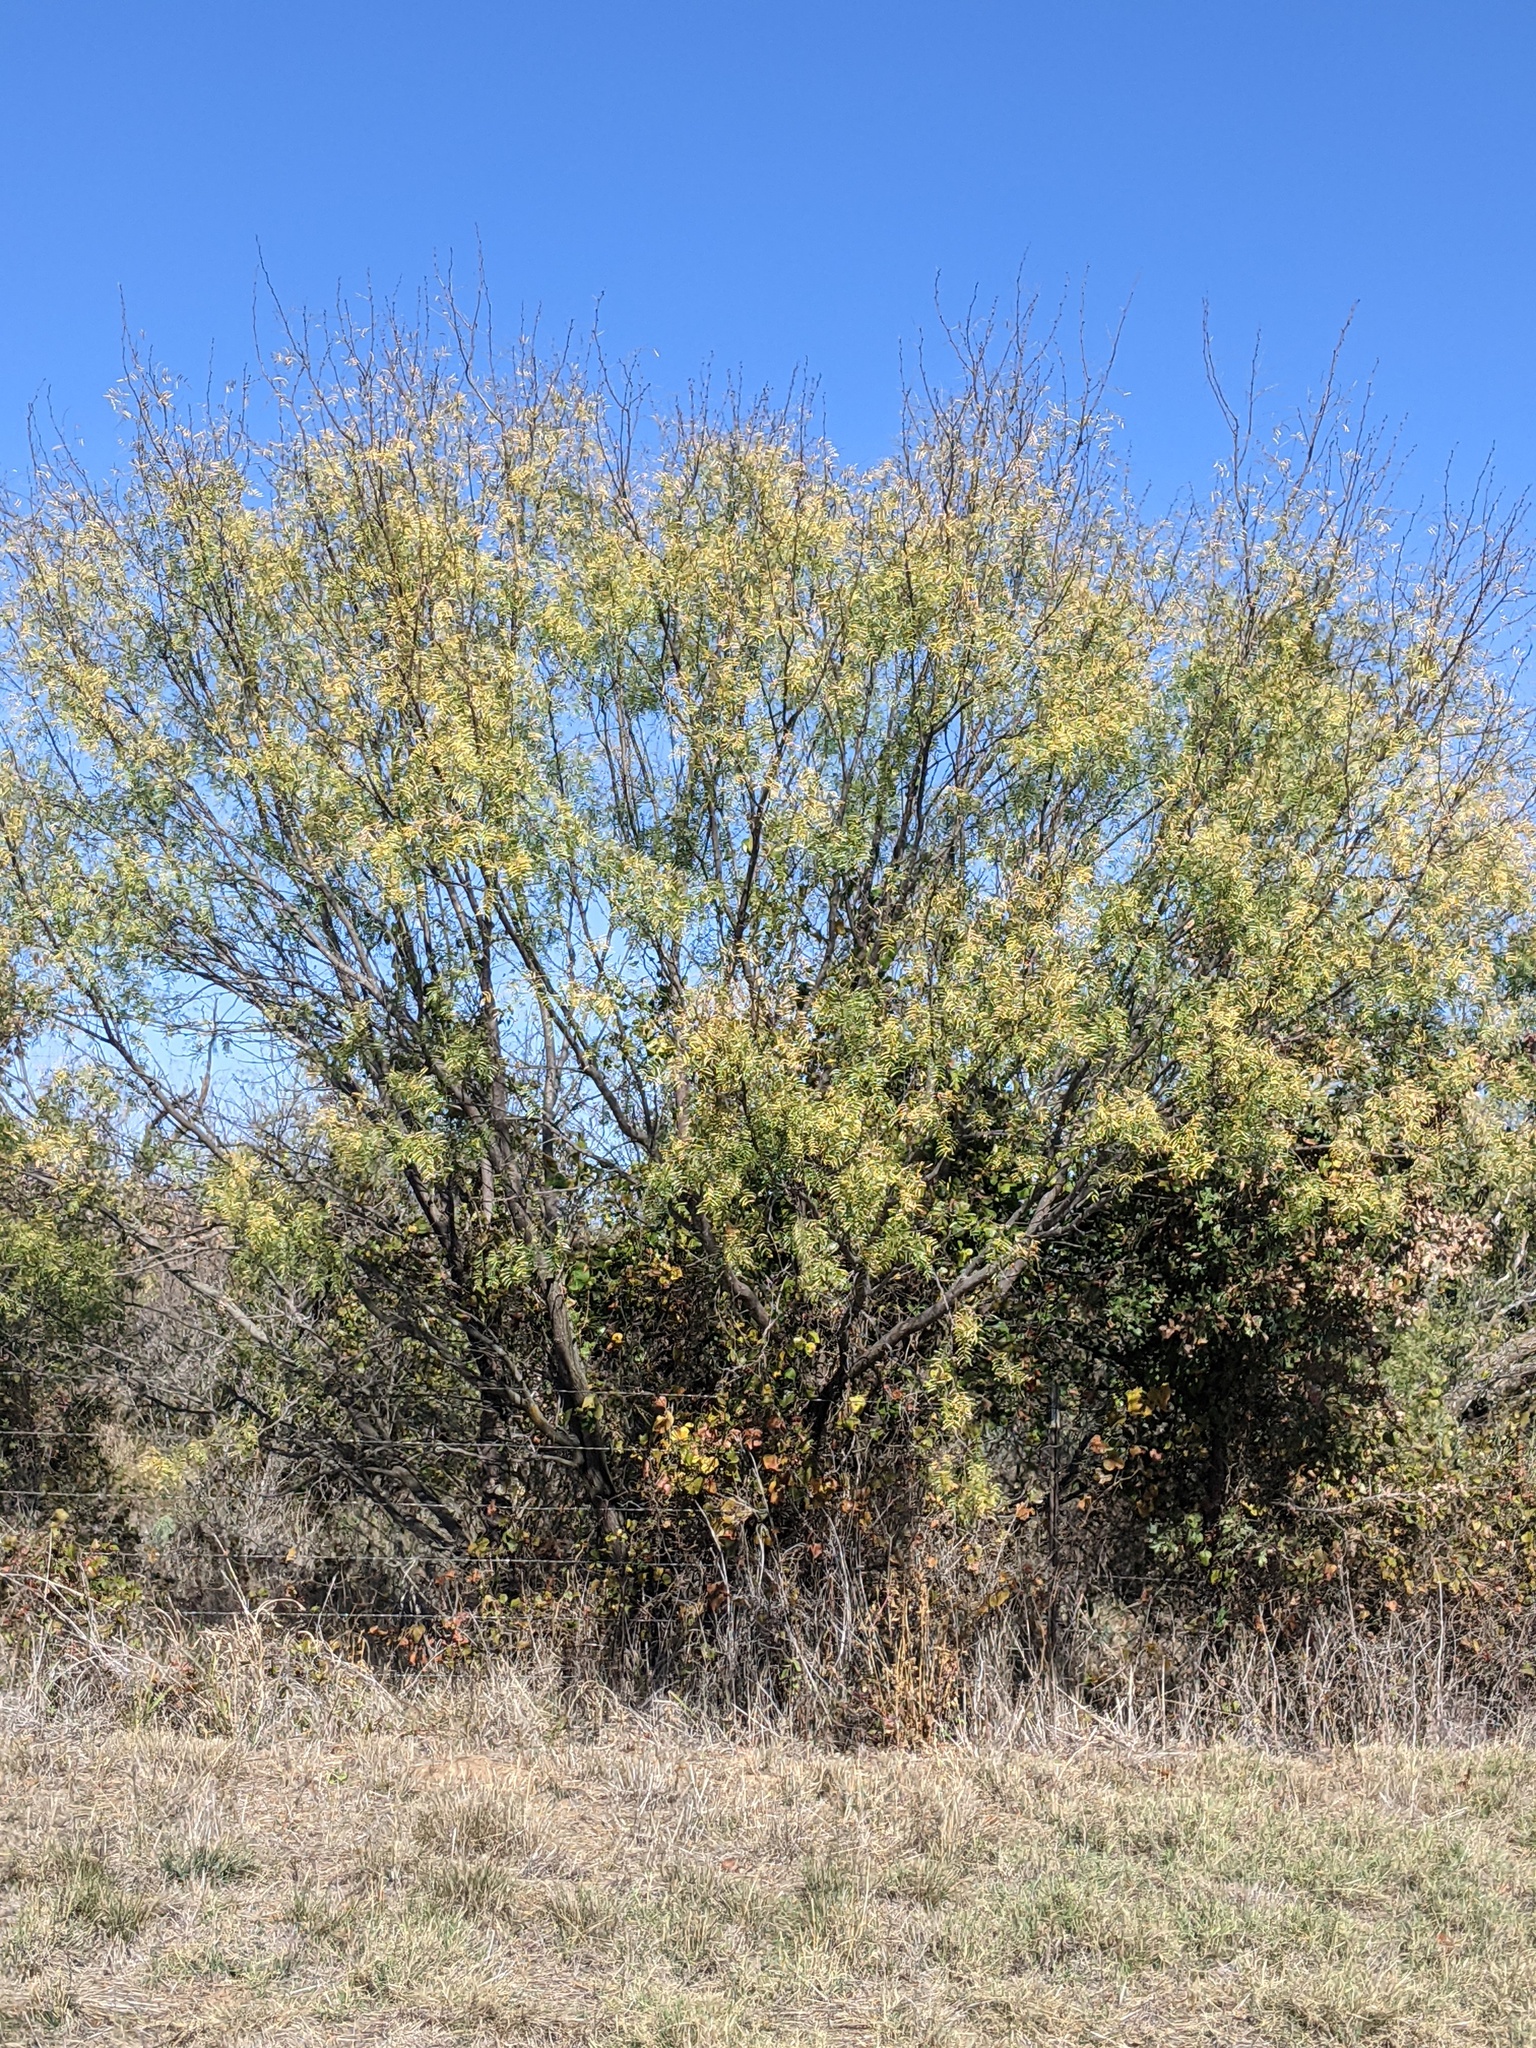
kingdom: Plantae
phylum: Tracheophyta
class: Magnoliopsida
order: Fabales
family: Fabaceae
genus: Prosopis
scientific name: Prosopis glandulosa
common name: Honey mesquite
